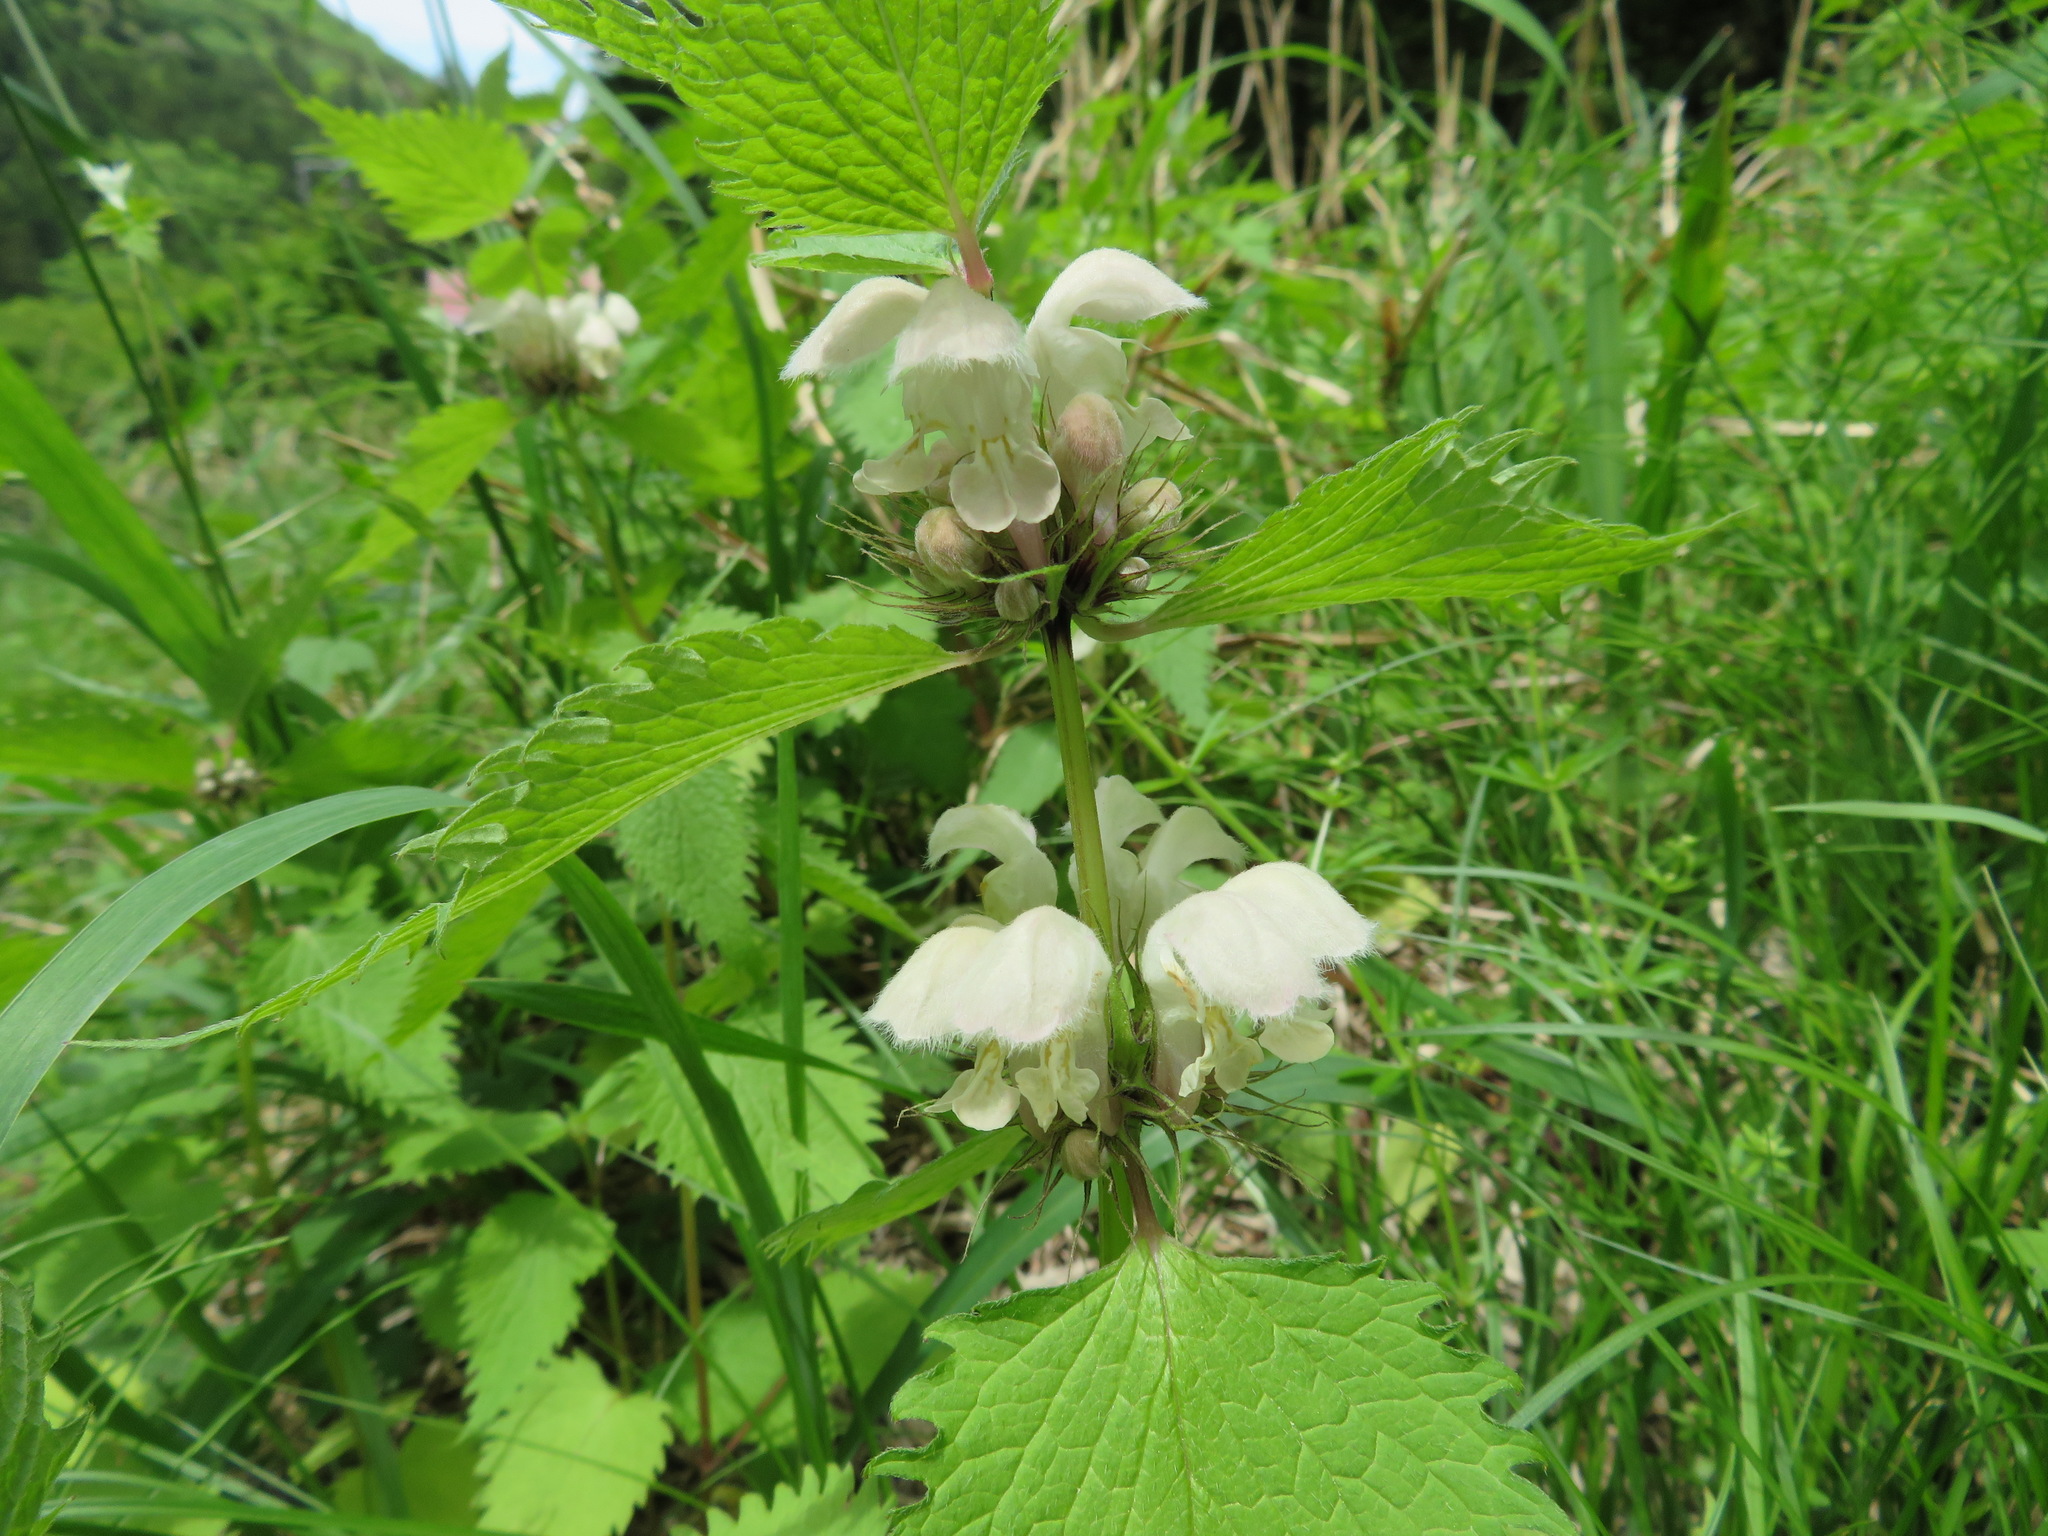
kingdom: Plantae
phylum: Tracheophyta
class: Magnoliopsida
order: Lamiales
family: Lamiaceae
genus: Lamium
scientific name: Lamium album
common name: White dead-nettle
